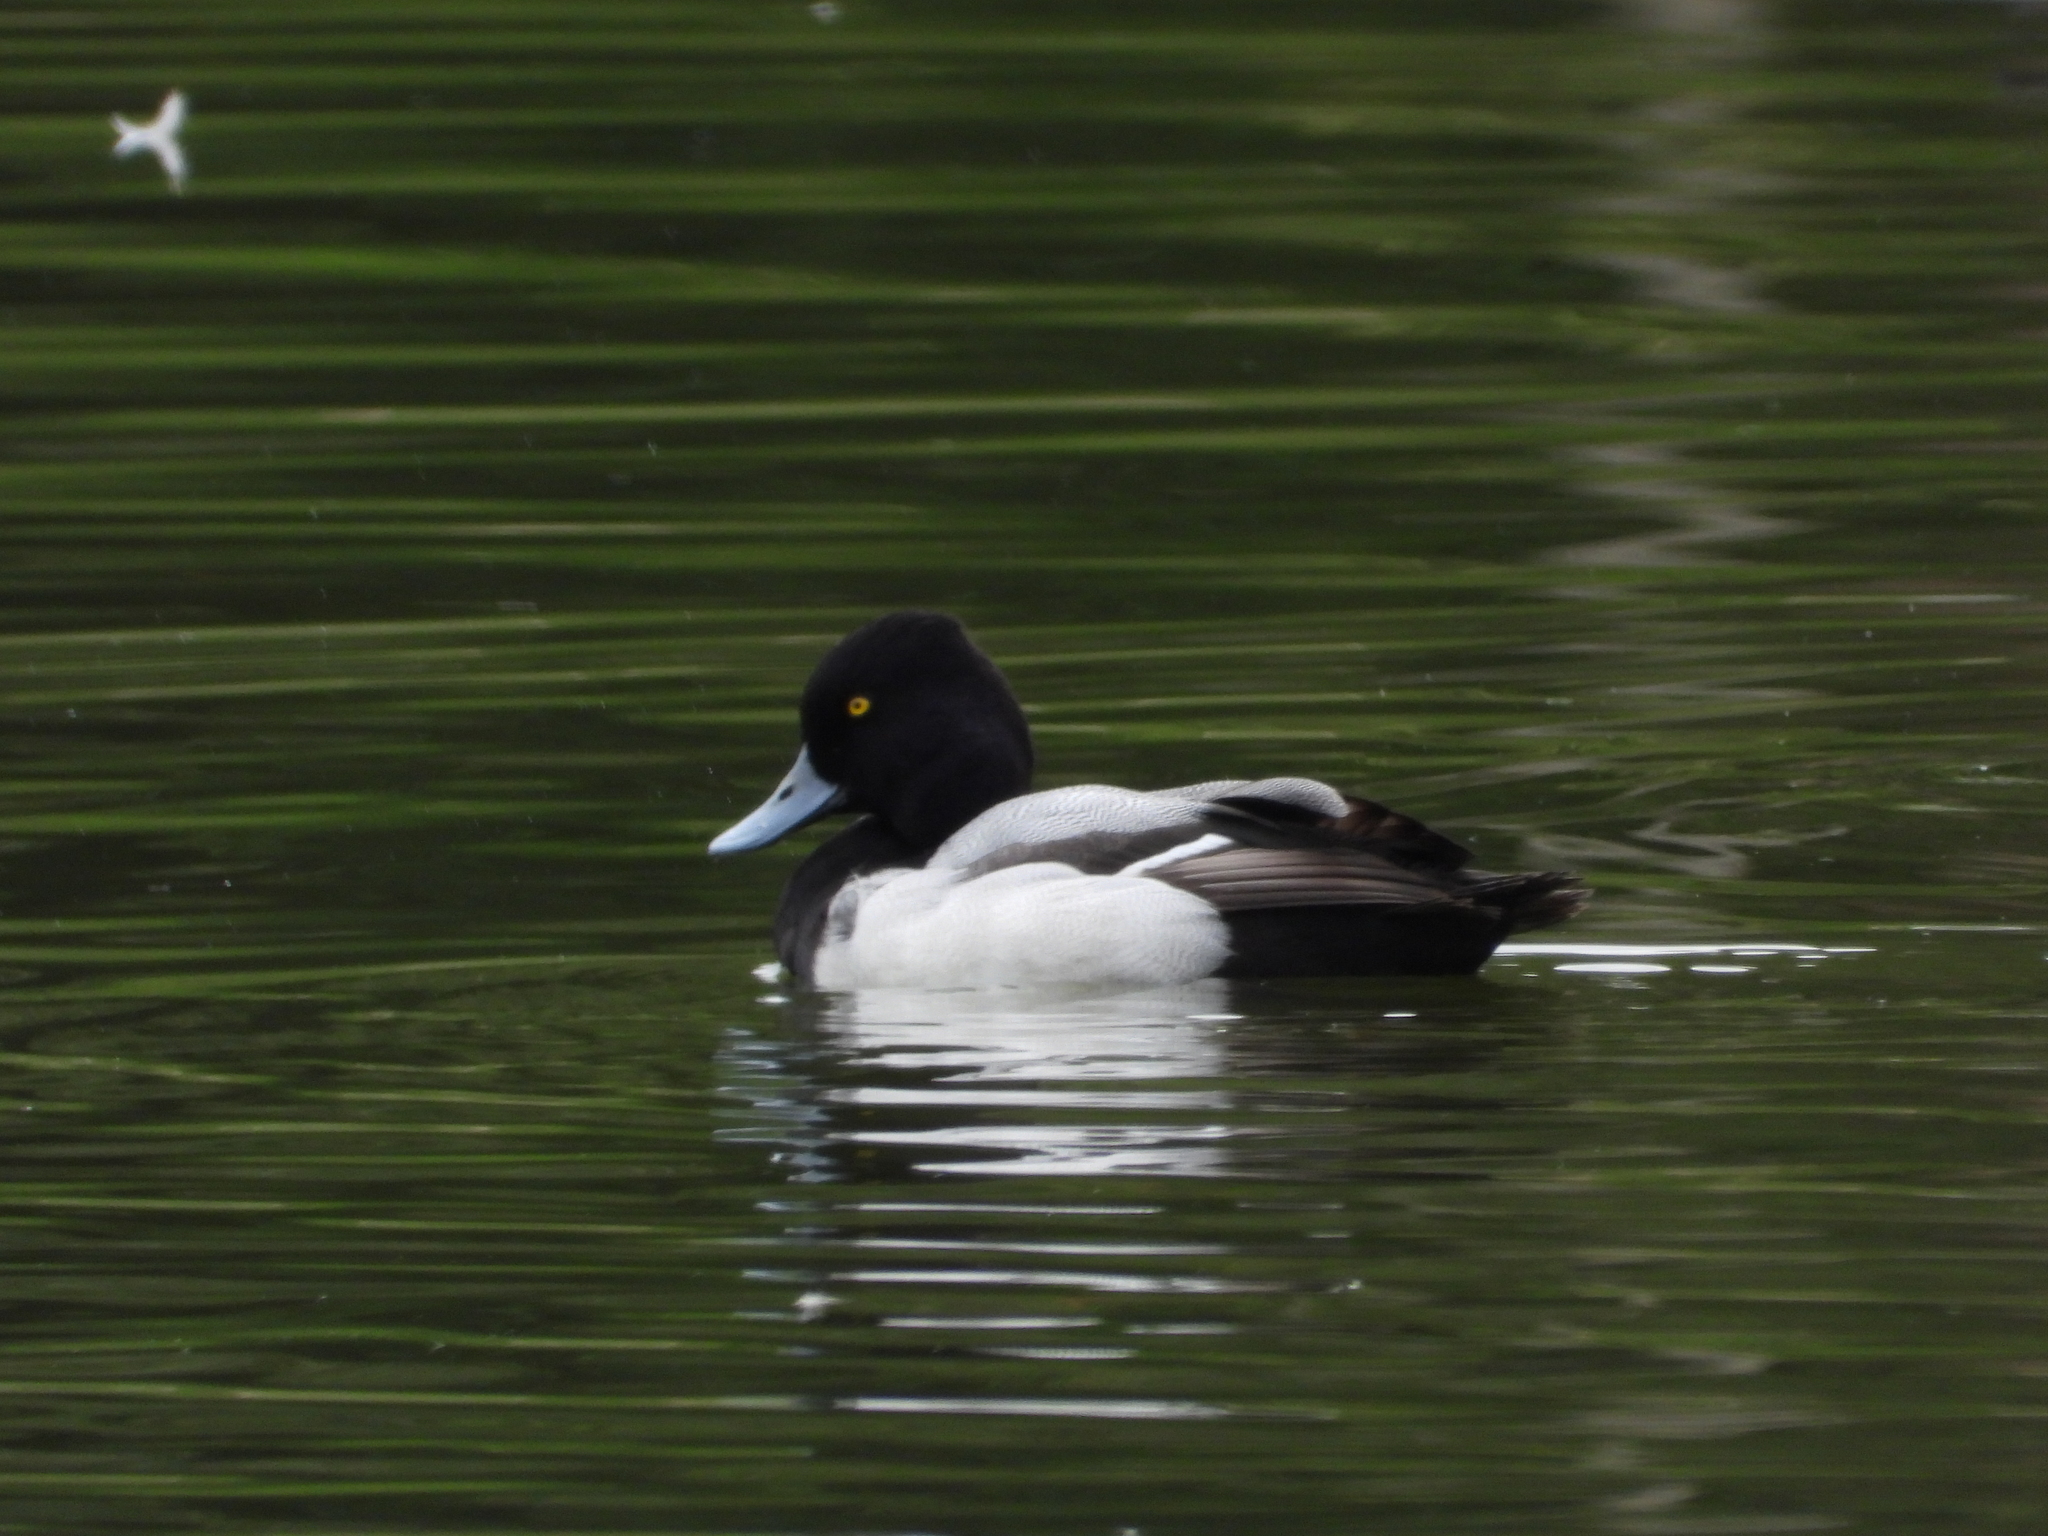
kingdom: Animalia
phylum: Chordata
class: Aves
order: Anseriformes
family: Anatidae
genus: Aythya
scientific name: Aythya affinis
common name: Lesser scaup
